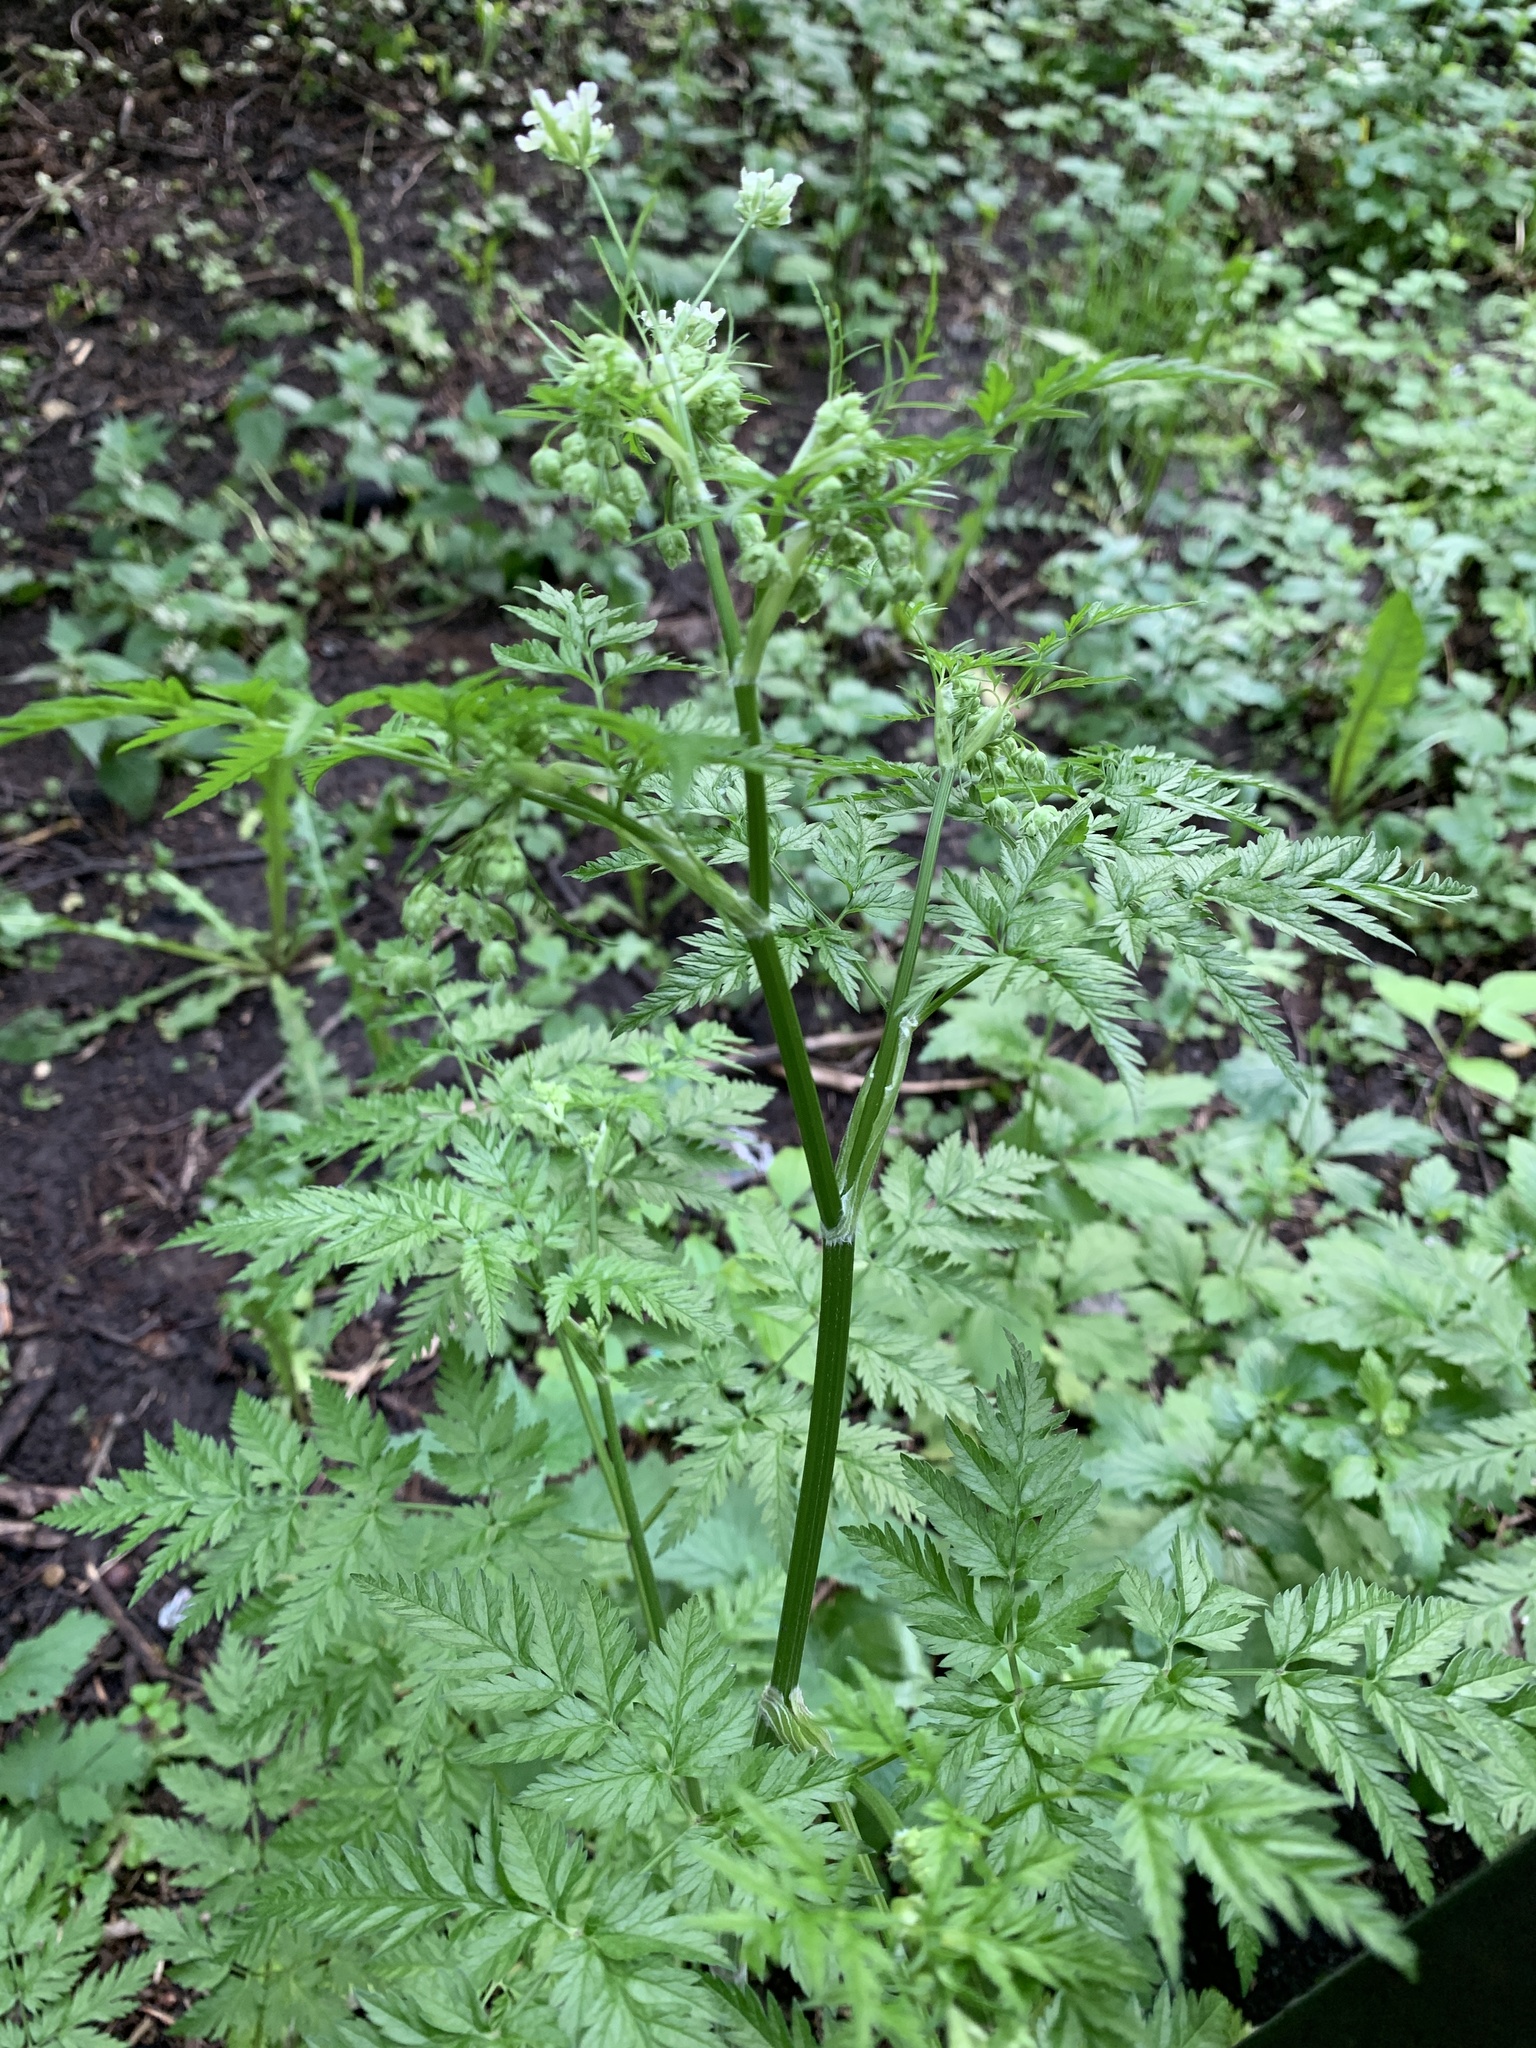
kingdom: Plantae
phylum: Tracheophyta
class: Magnoliopsida
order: Apiales
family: Apiaceae
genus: Anthriscus
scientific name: Anthriscus sylvestris
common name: Cow parsley
